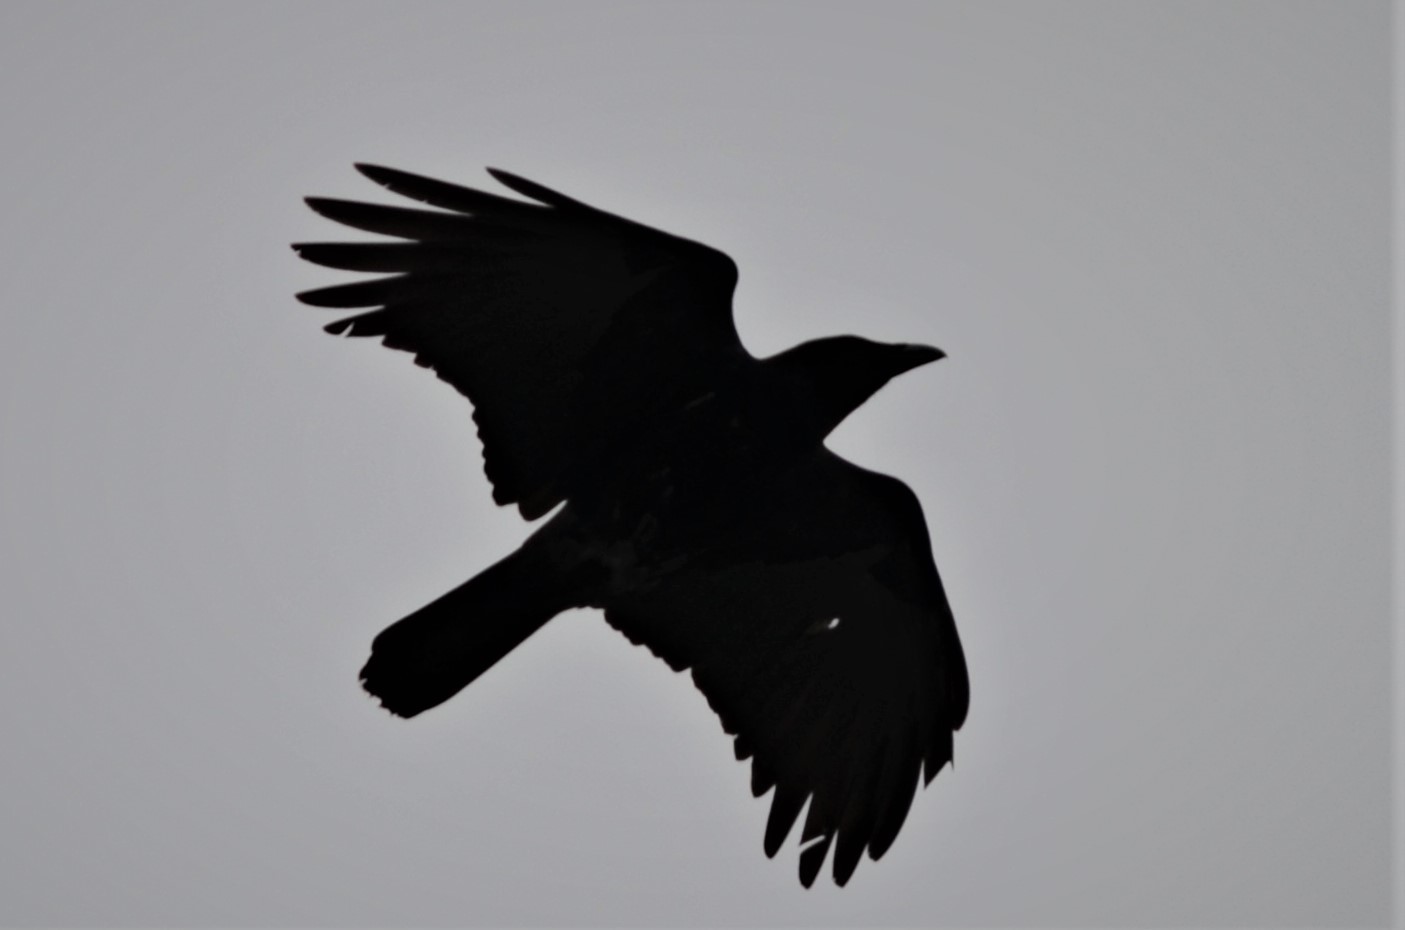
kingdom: Animalia
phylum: Chordata
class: Aves
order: Passeriformes
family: Corvidae
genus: Corvus
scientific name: Corvus corone
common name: Carrion crow
